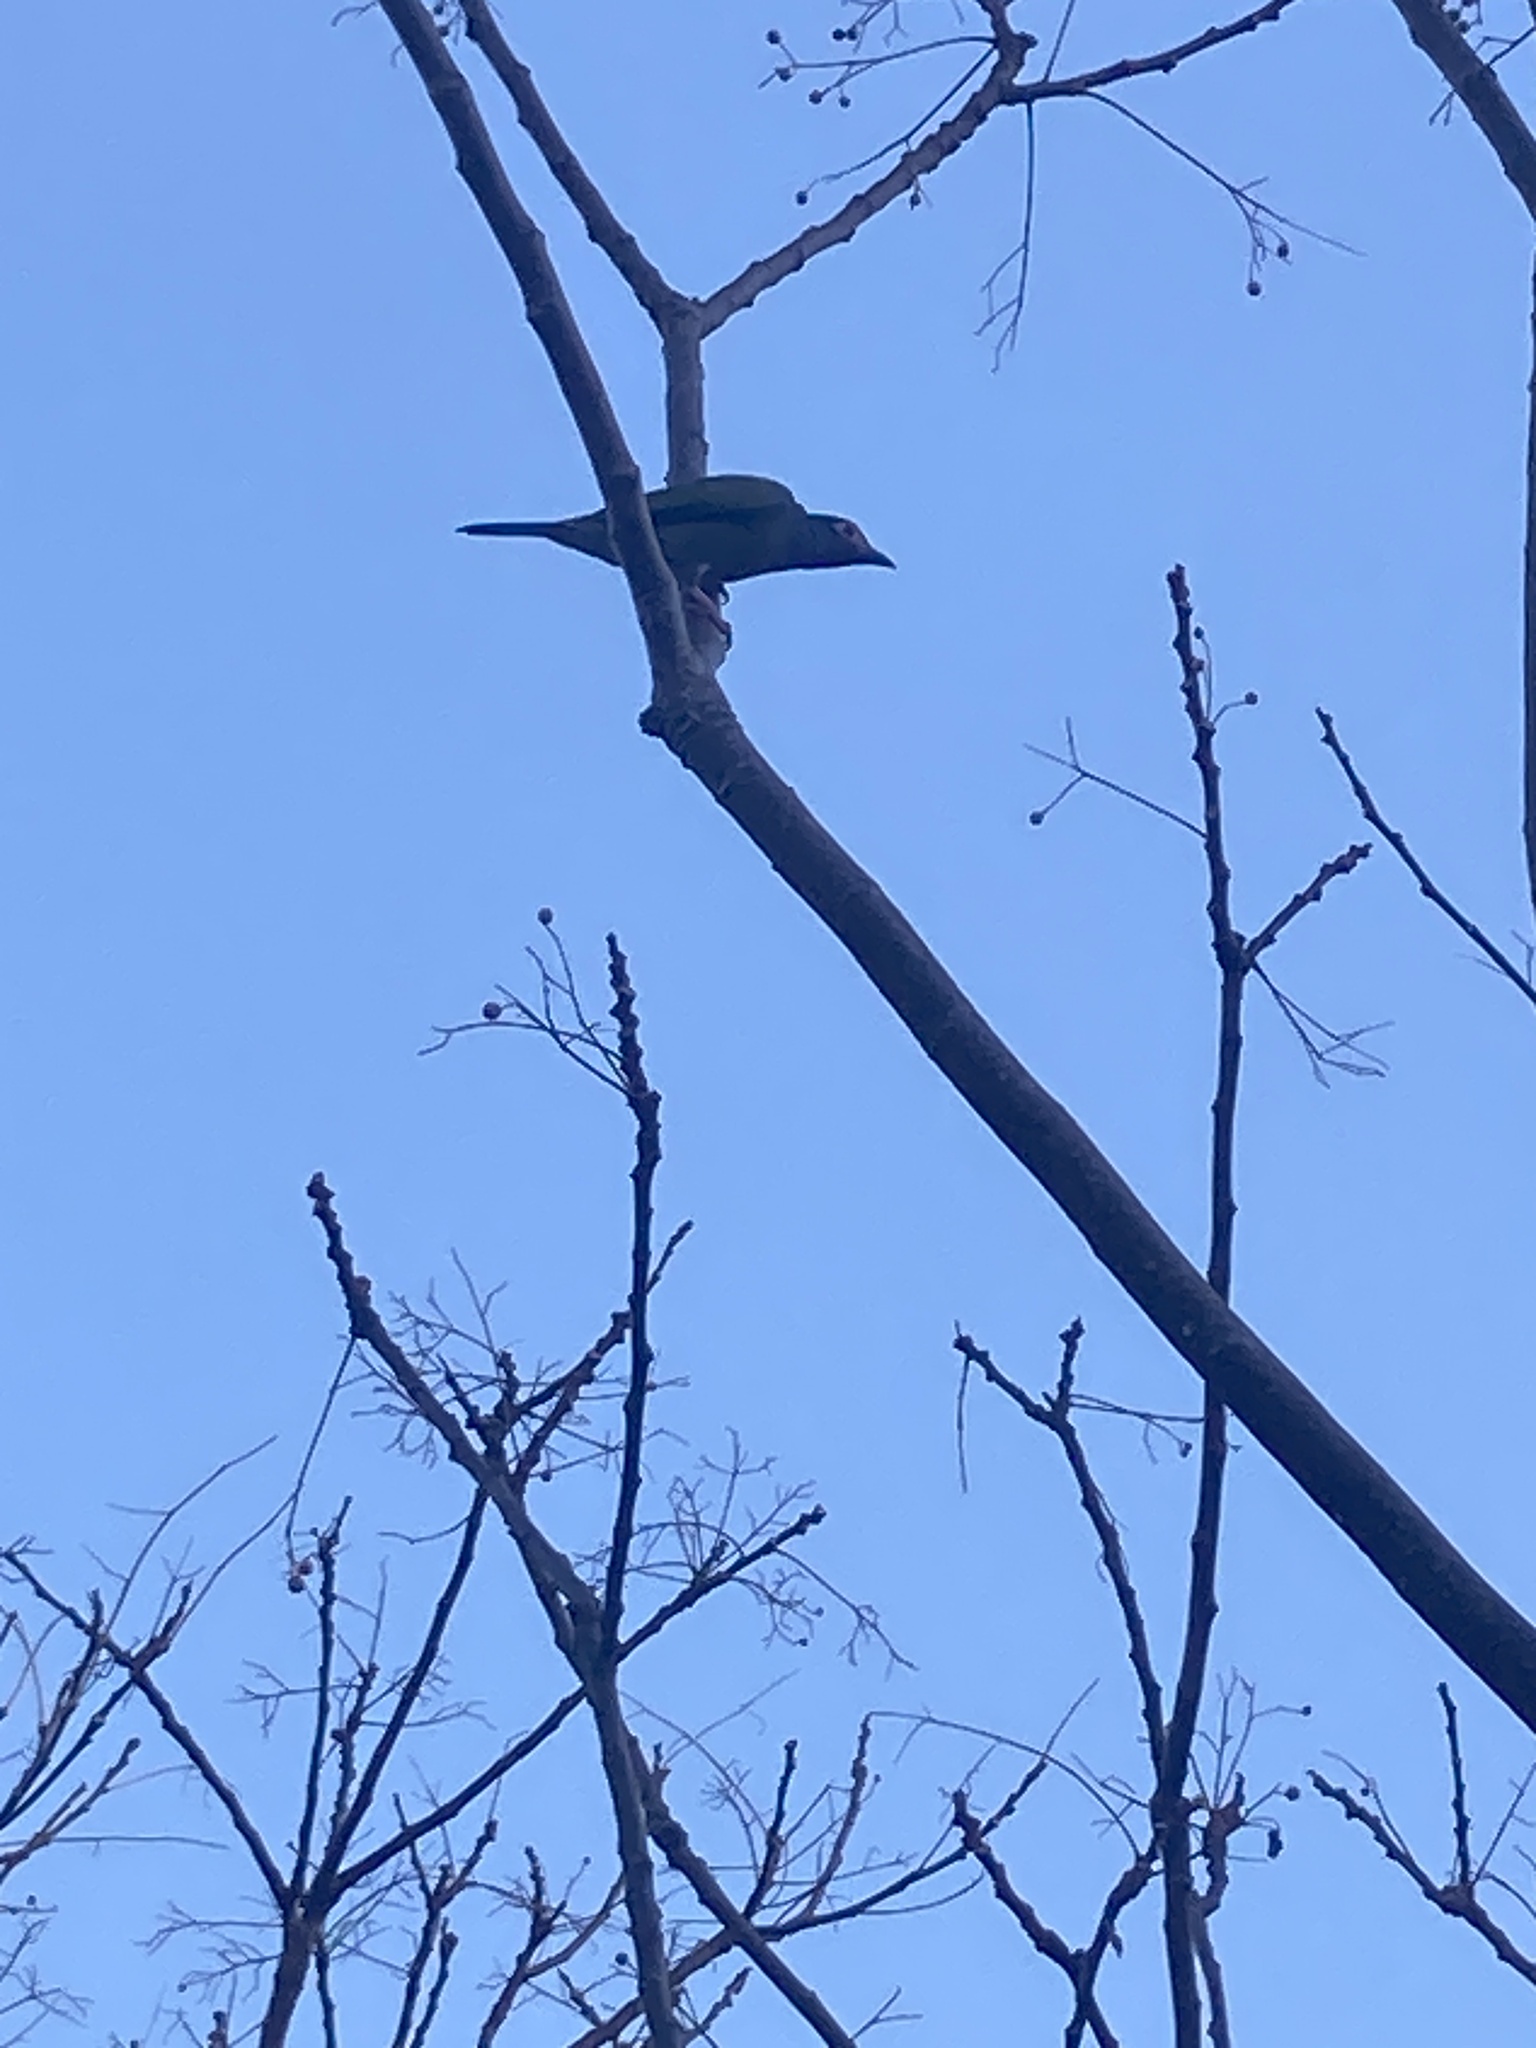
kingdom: Animalia
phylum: Chordata
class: Aves
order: Passeriformes
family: Oriolidae
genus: Sphecotheres
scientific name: Sphecotheres vieilloti
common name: Australasian figbird
